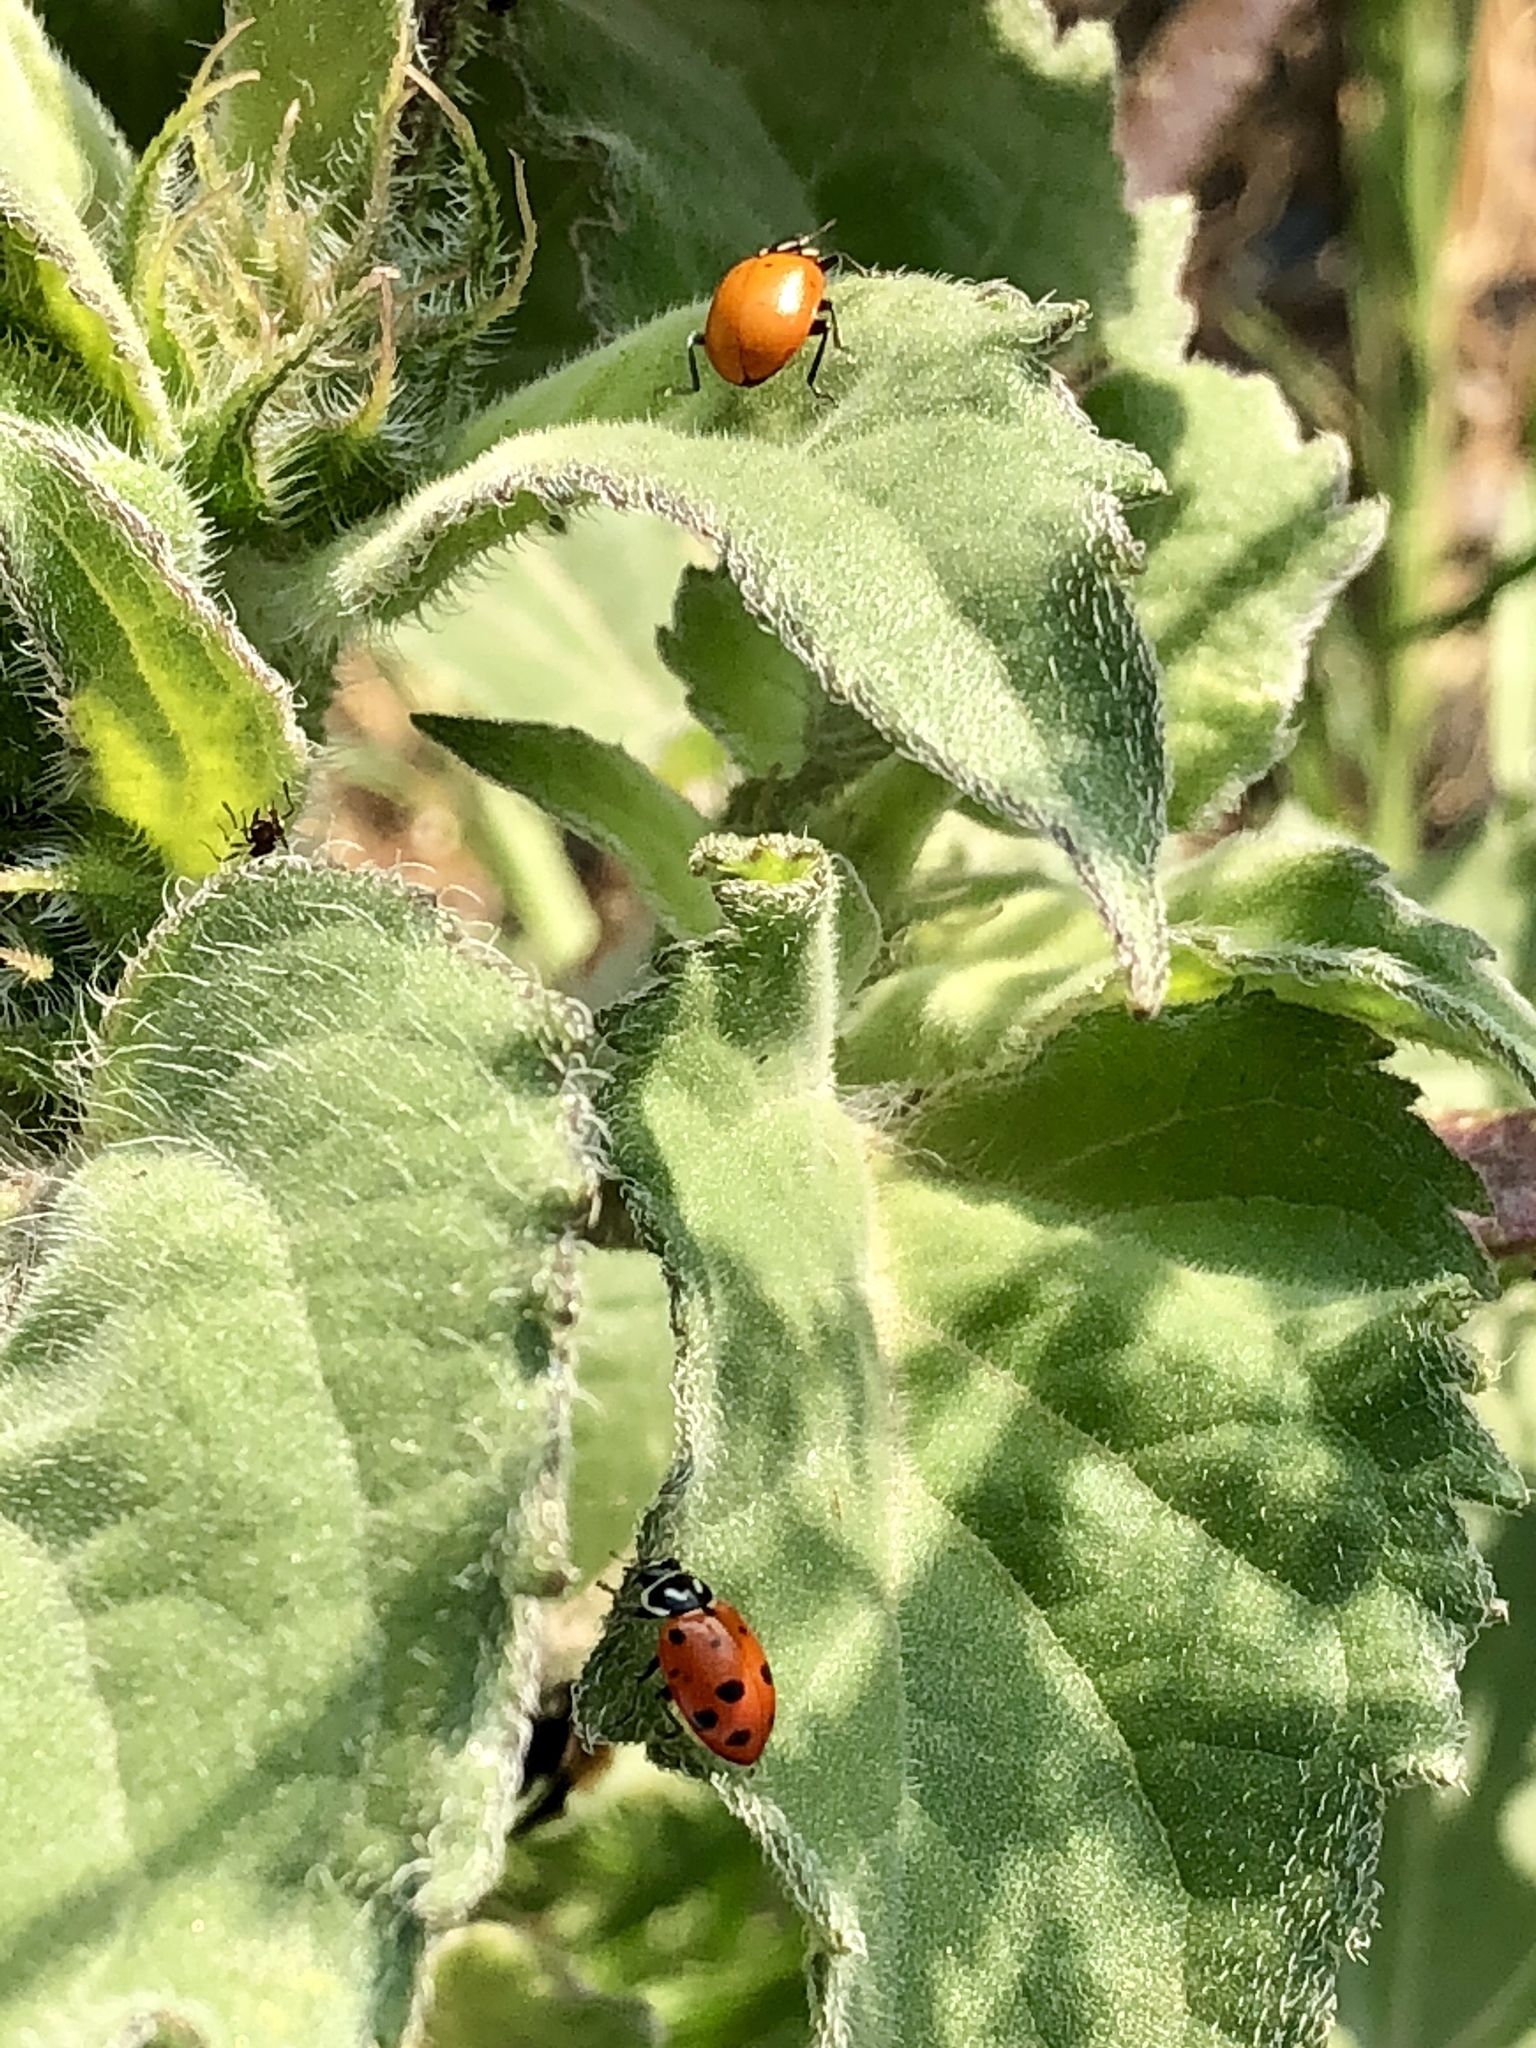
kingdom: Animalia
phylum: Arthropoda
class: Insecta
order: Coleoptera
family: Coccinellidae
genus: Hippodamia
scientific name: Hippodamia convergens
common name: Convergent lady beetle
